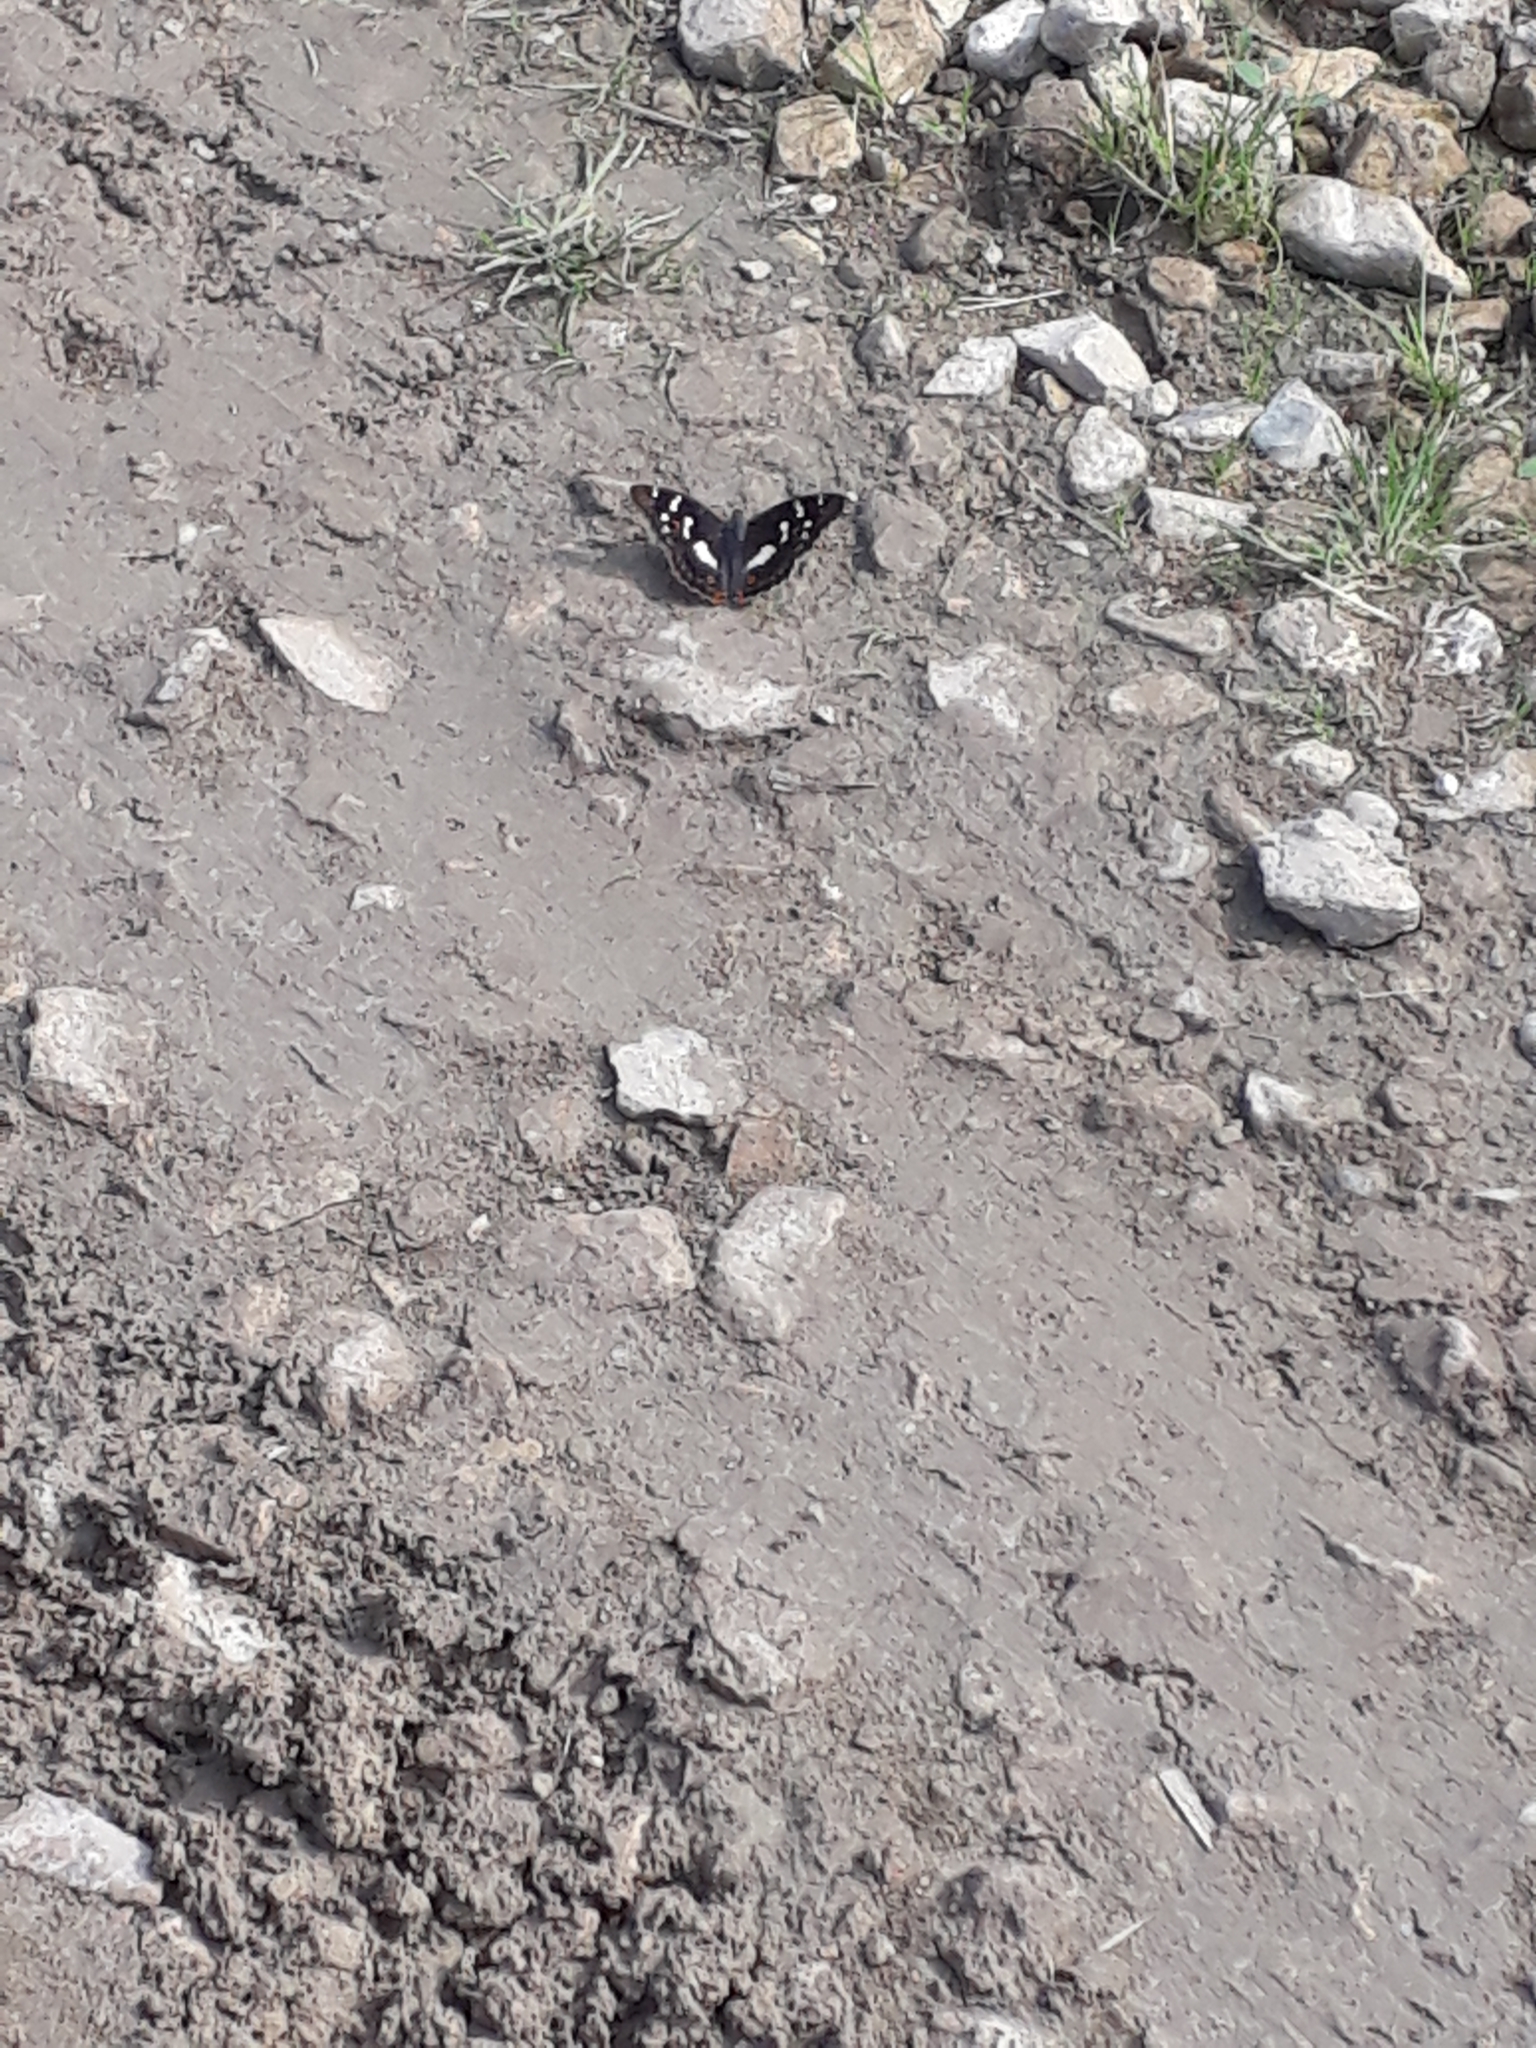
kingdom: Animalia
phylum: Arthropoda
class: Insecta
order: Lepidoptera
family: Nymphalidae
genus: Apatura
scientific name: Apatura ilia
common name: Lesser purple emperor
